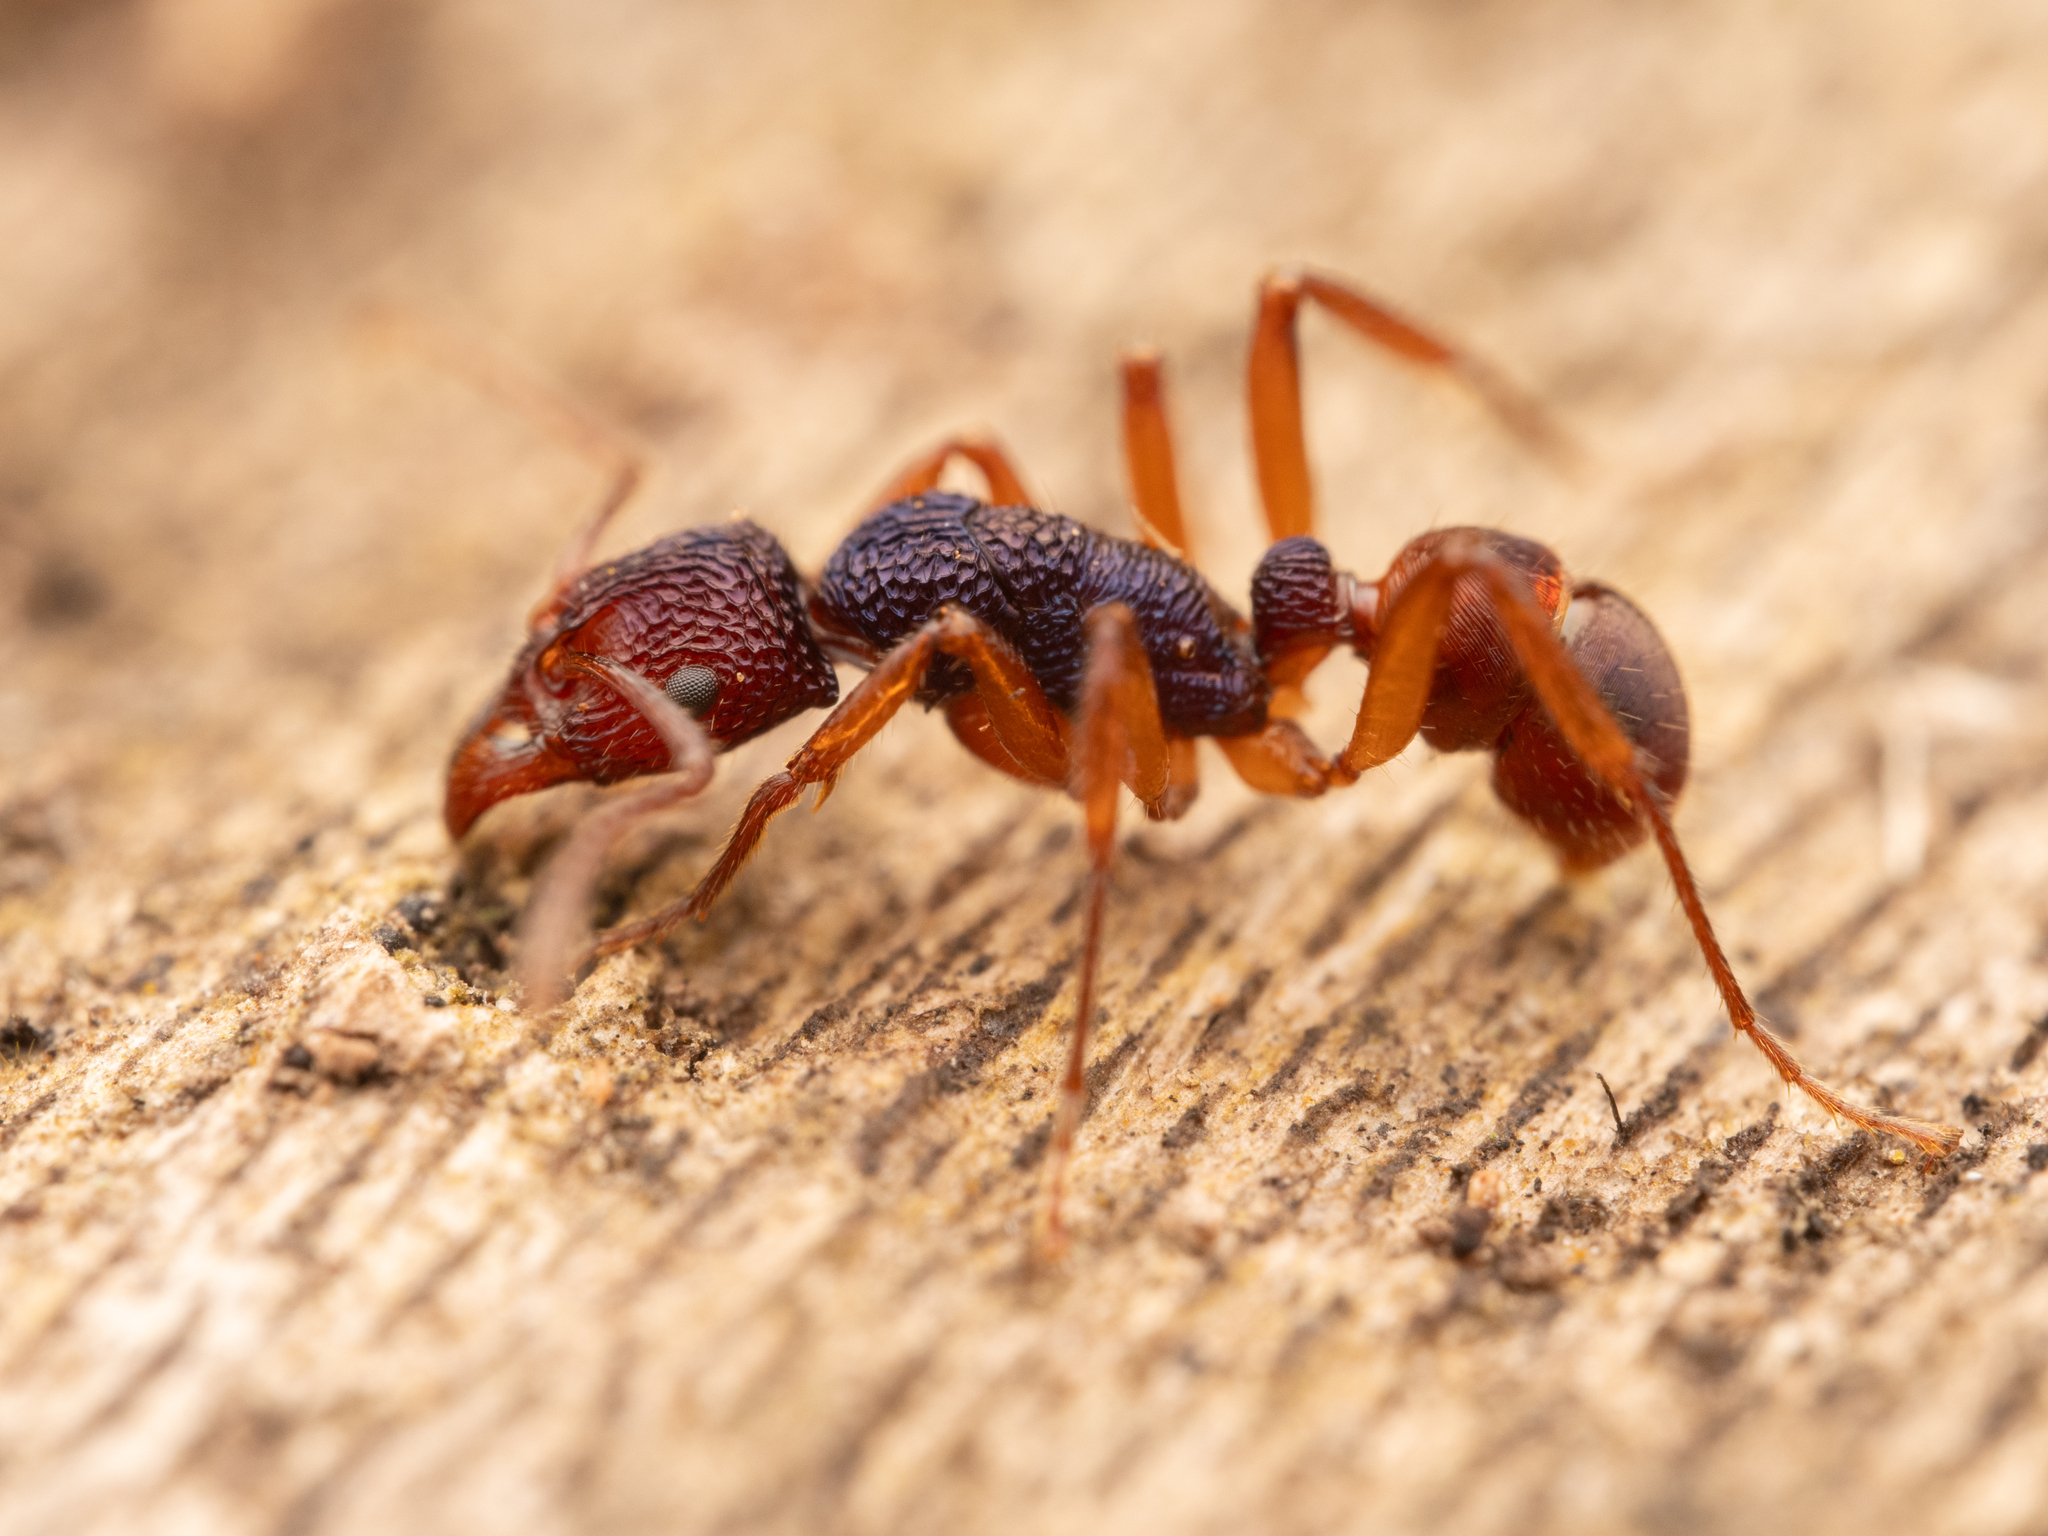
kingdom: Animalia
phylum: Arthropoda
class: Insecta
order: Hymenoptera
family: Formicidae
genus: Rhytidoponera
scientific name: Rhytidoponera croesus
